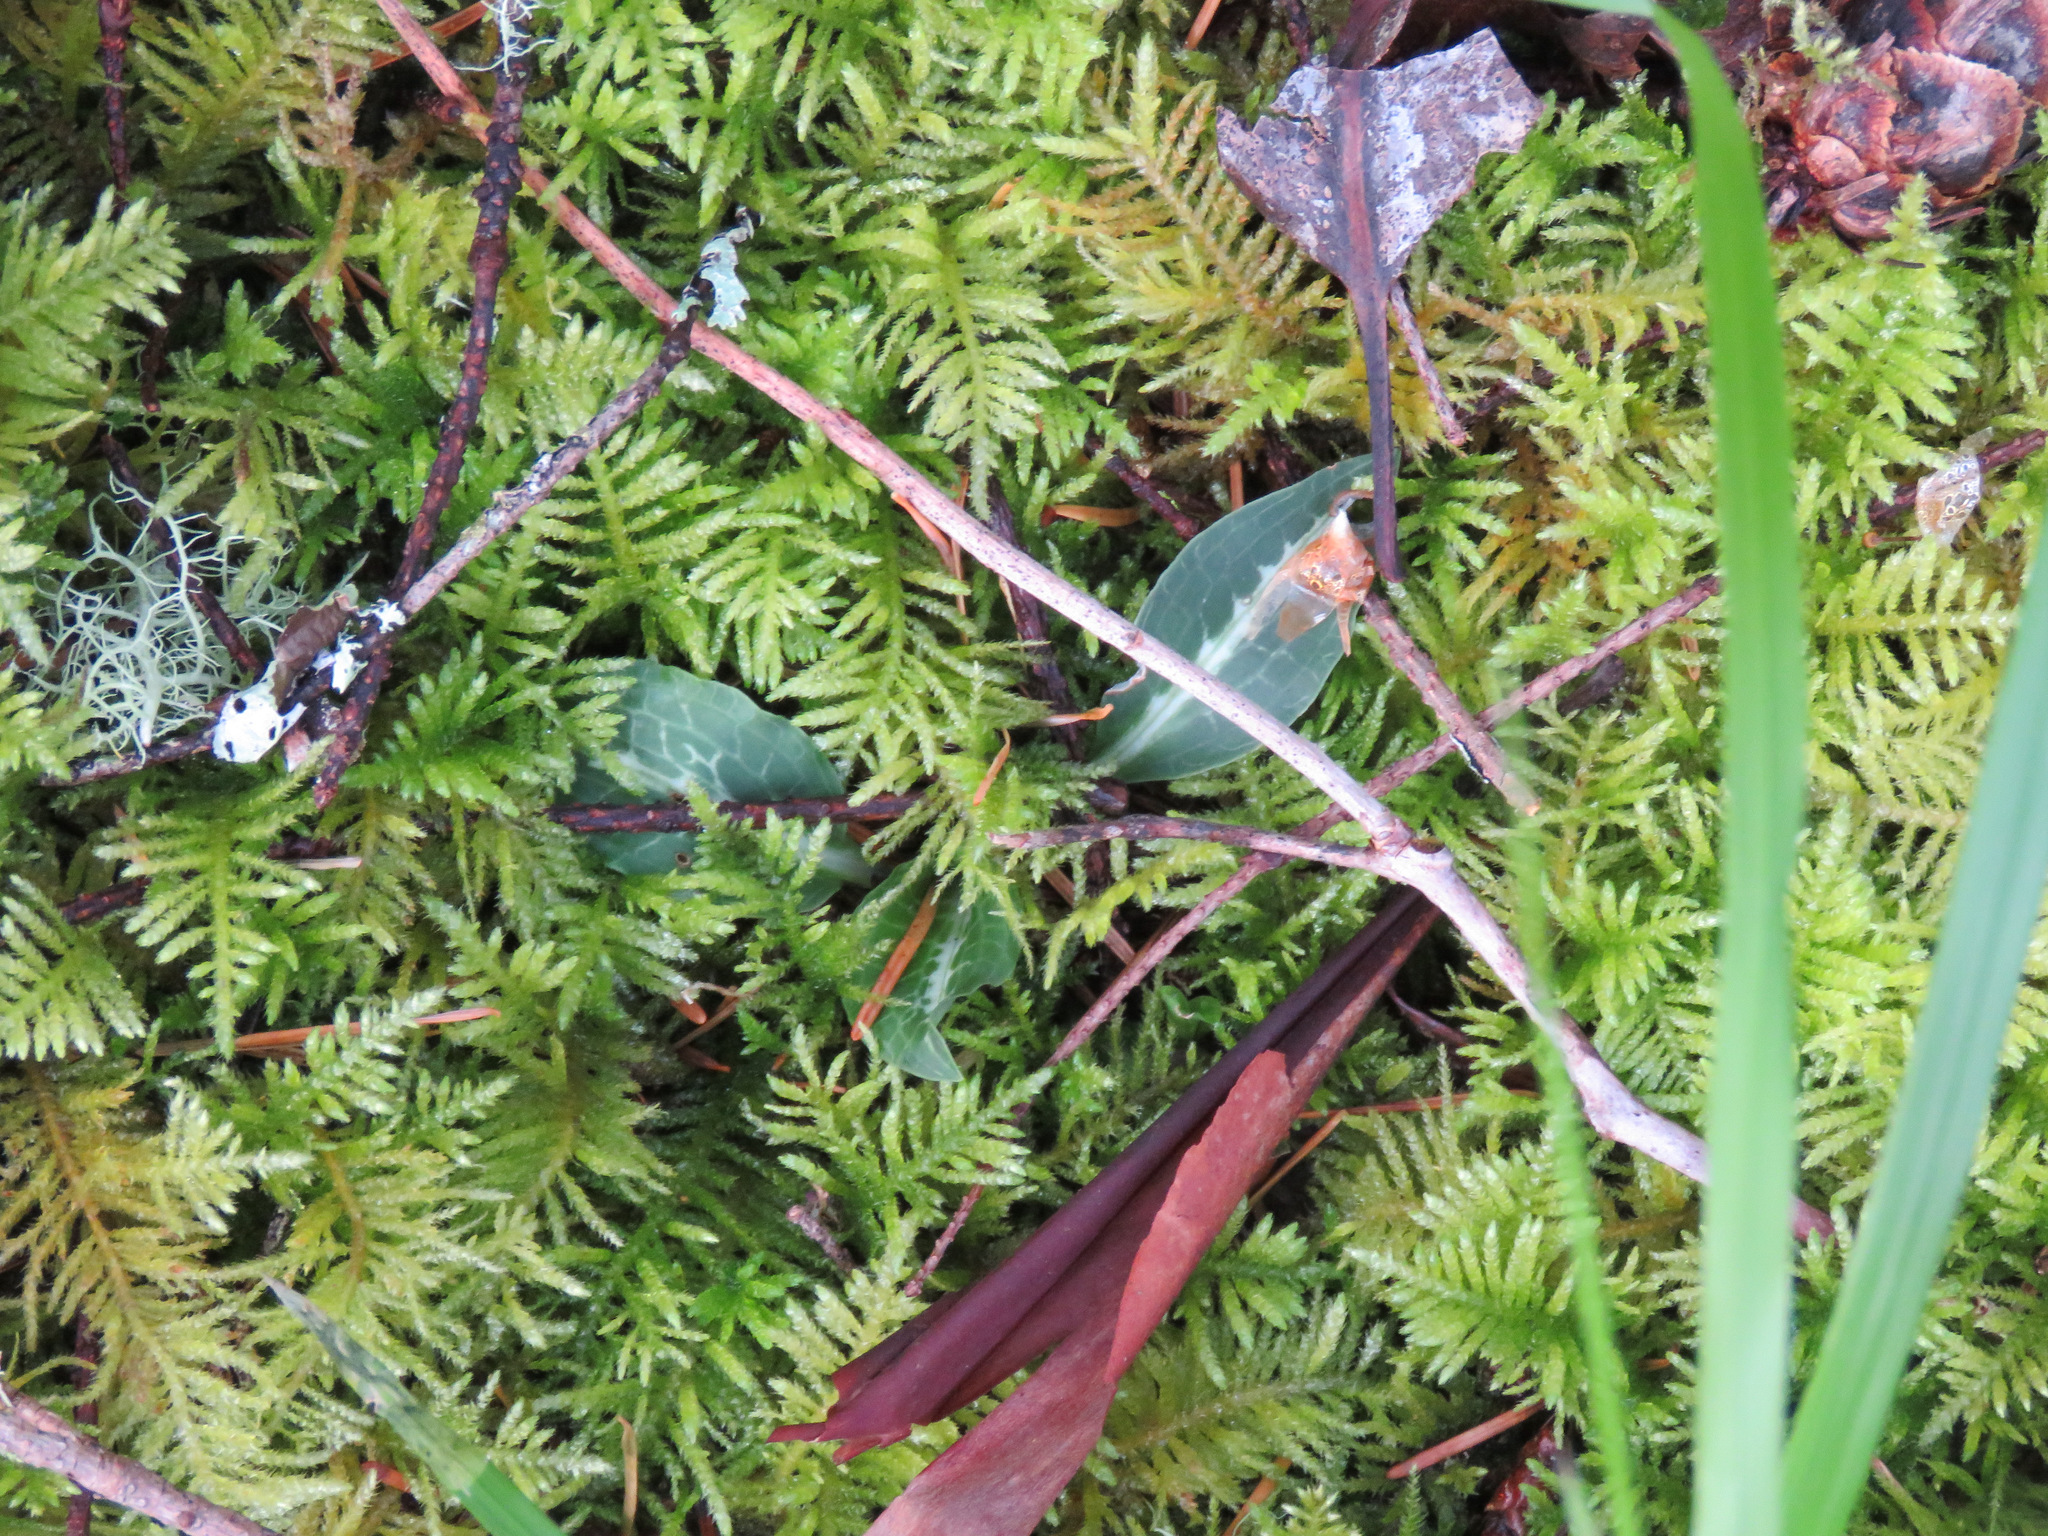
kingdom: Plantae
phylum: Tracheophyta
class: Liliopsida
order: Asparagales
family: Orchidaceae
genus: Goodyera
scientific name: Goodyera oblongifolia
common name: Giant rattlesnake-plantain
